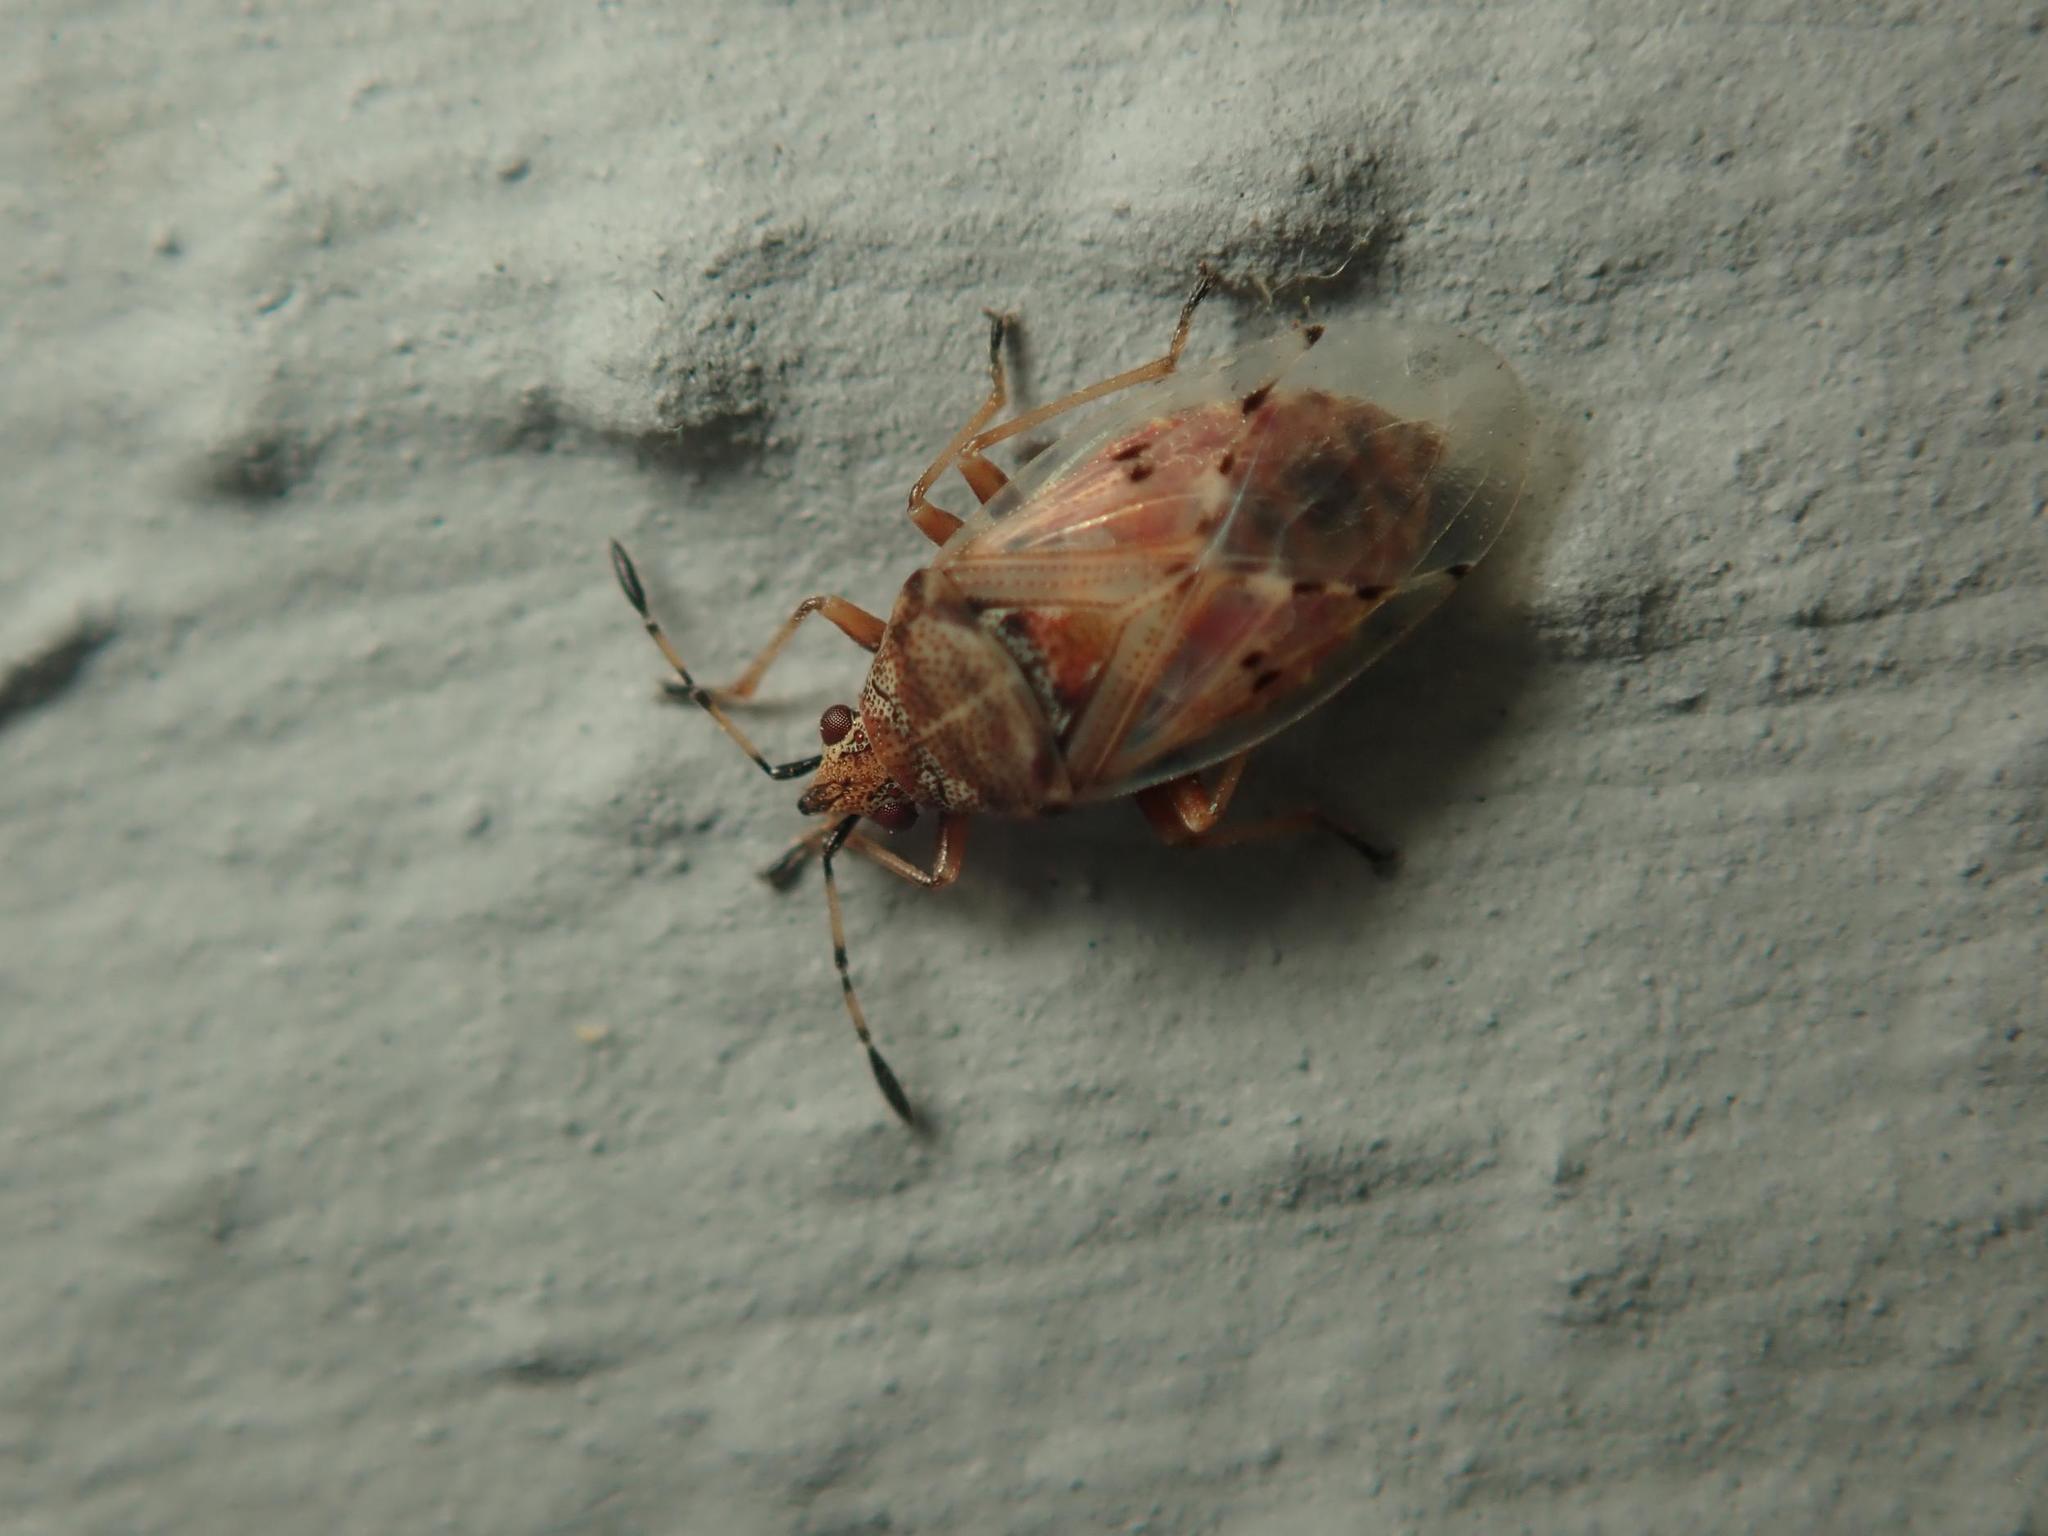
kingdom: Animalia
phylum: Arthropoda
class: Insecta
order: Hemiptera
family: Lygaeidae
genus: Kleidocerys
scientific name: Kleidocerys resedae
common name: Birch catkin bug
